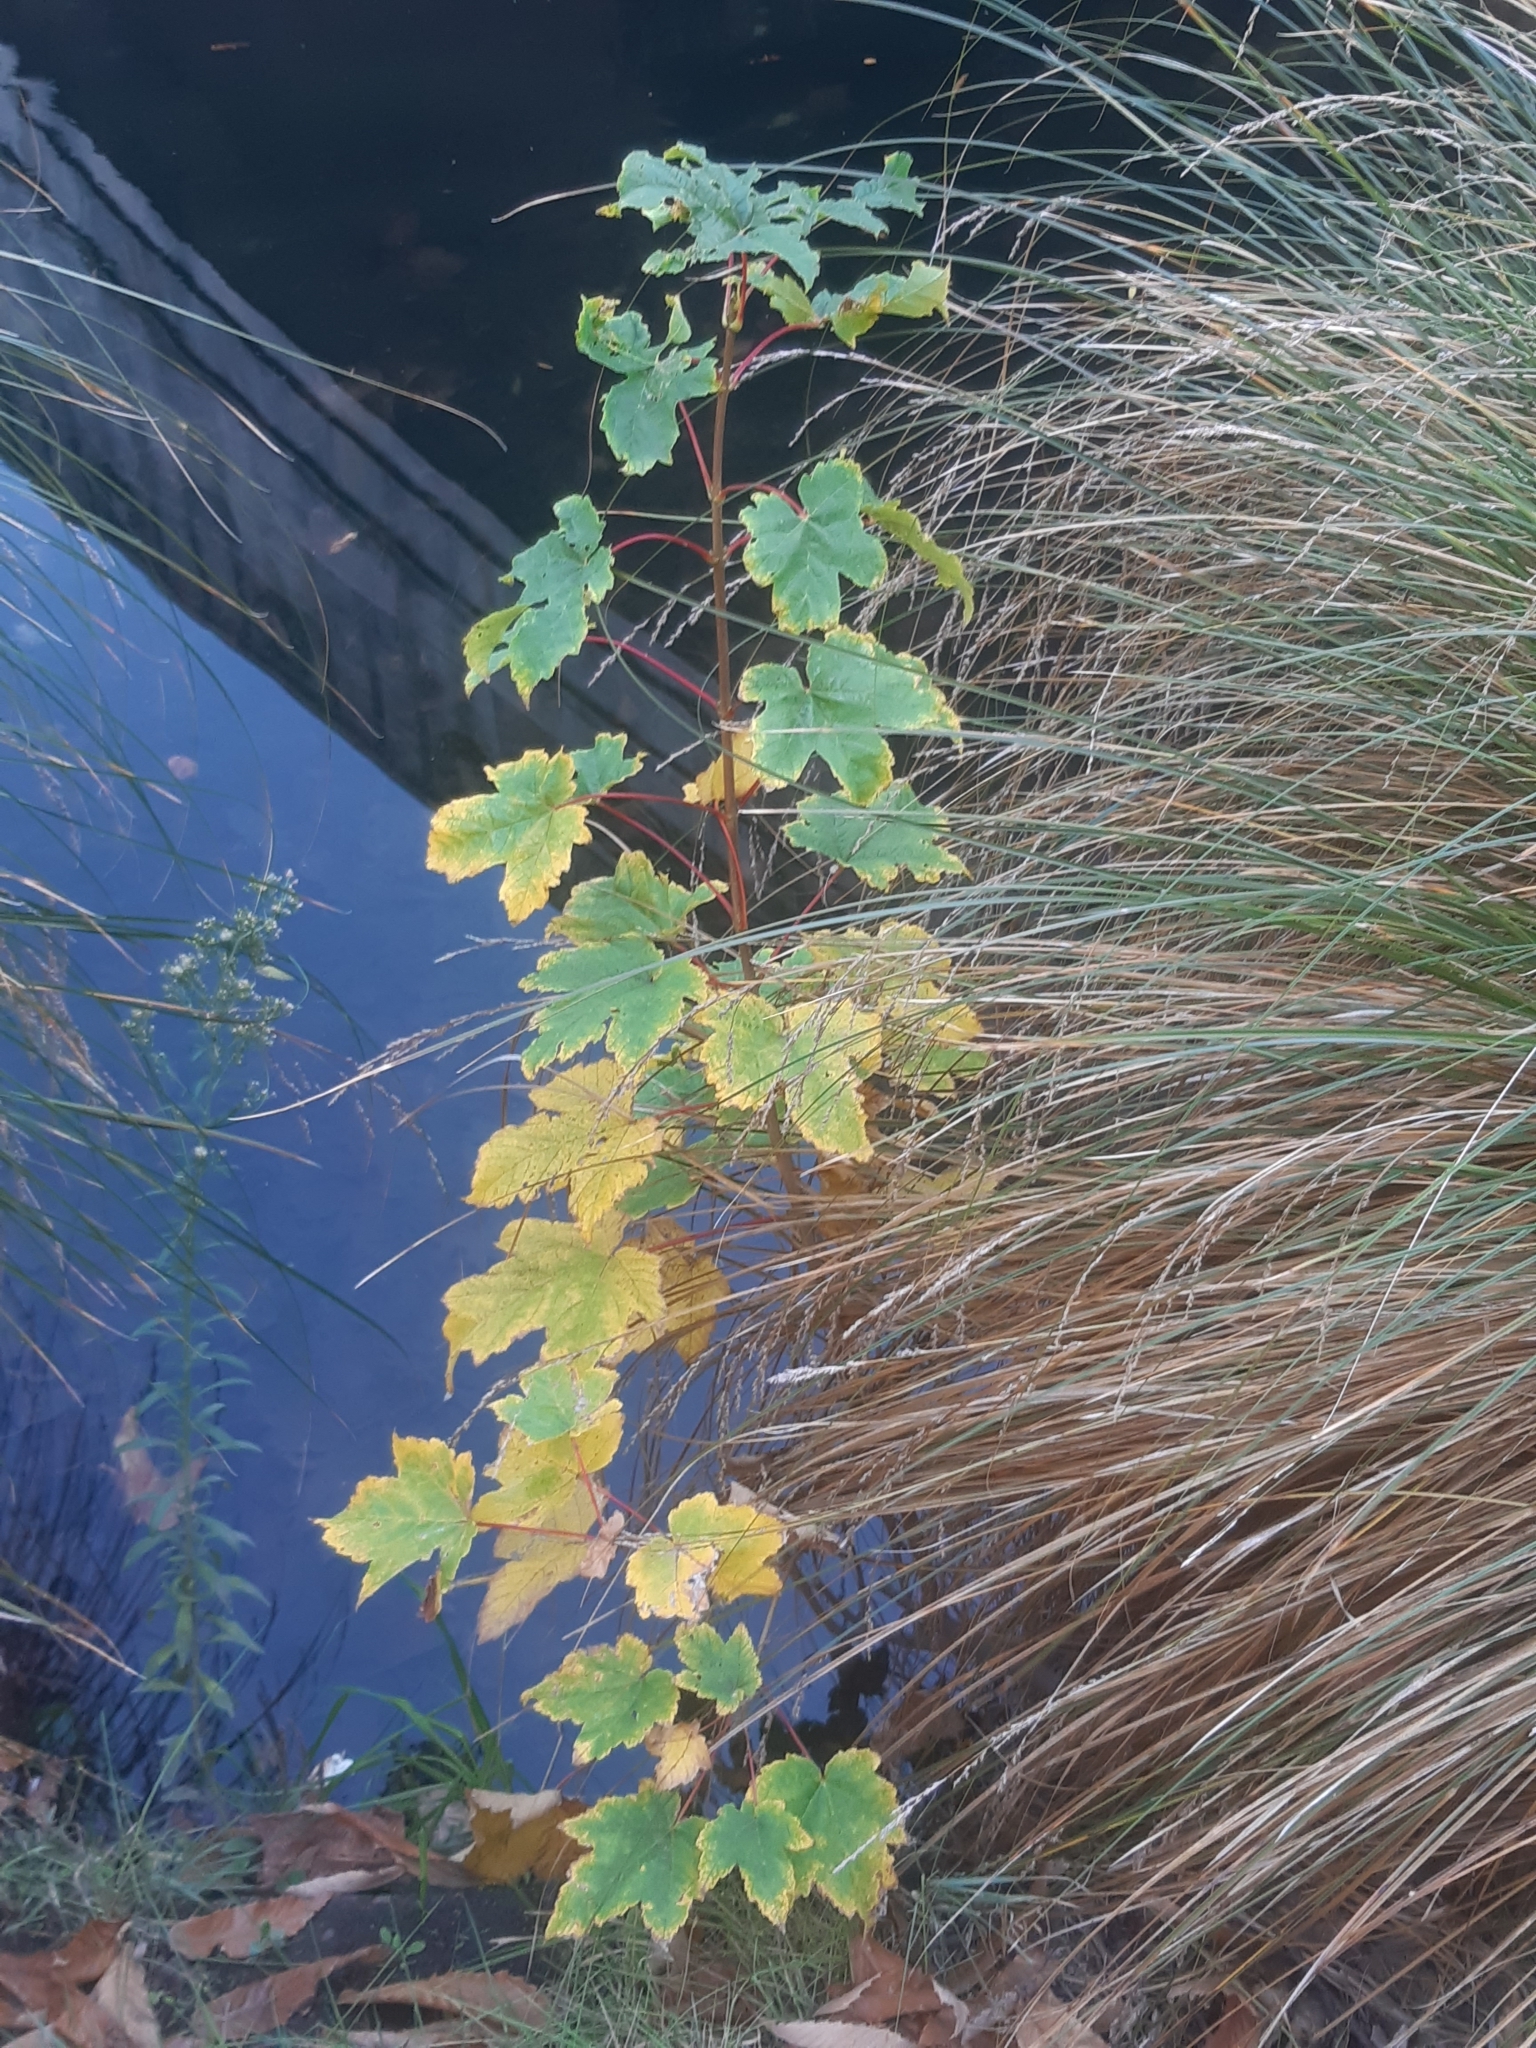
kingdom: Plantae
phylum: Tracheophyta
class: Magnoliopsida
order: Sapindales
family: Sapindaceae
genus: Acer
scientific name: Acer pseudoplatanus
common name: Sycamore
